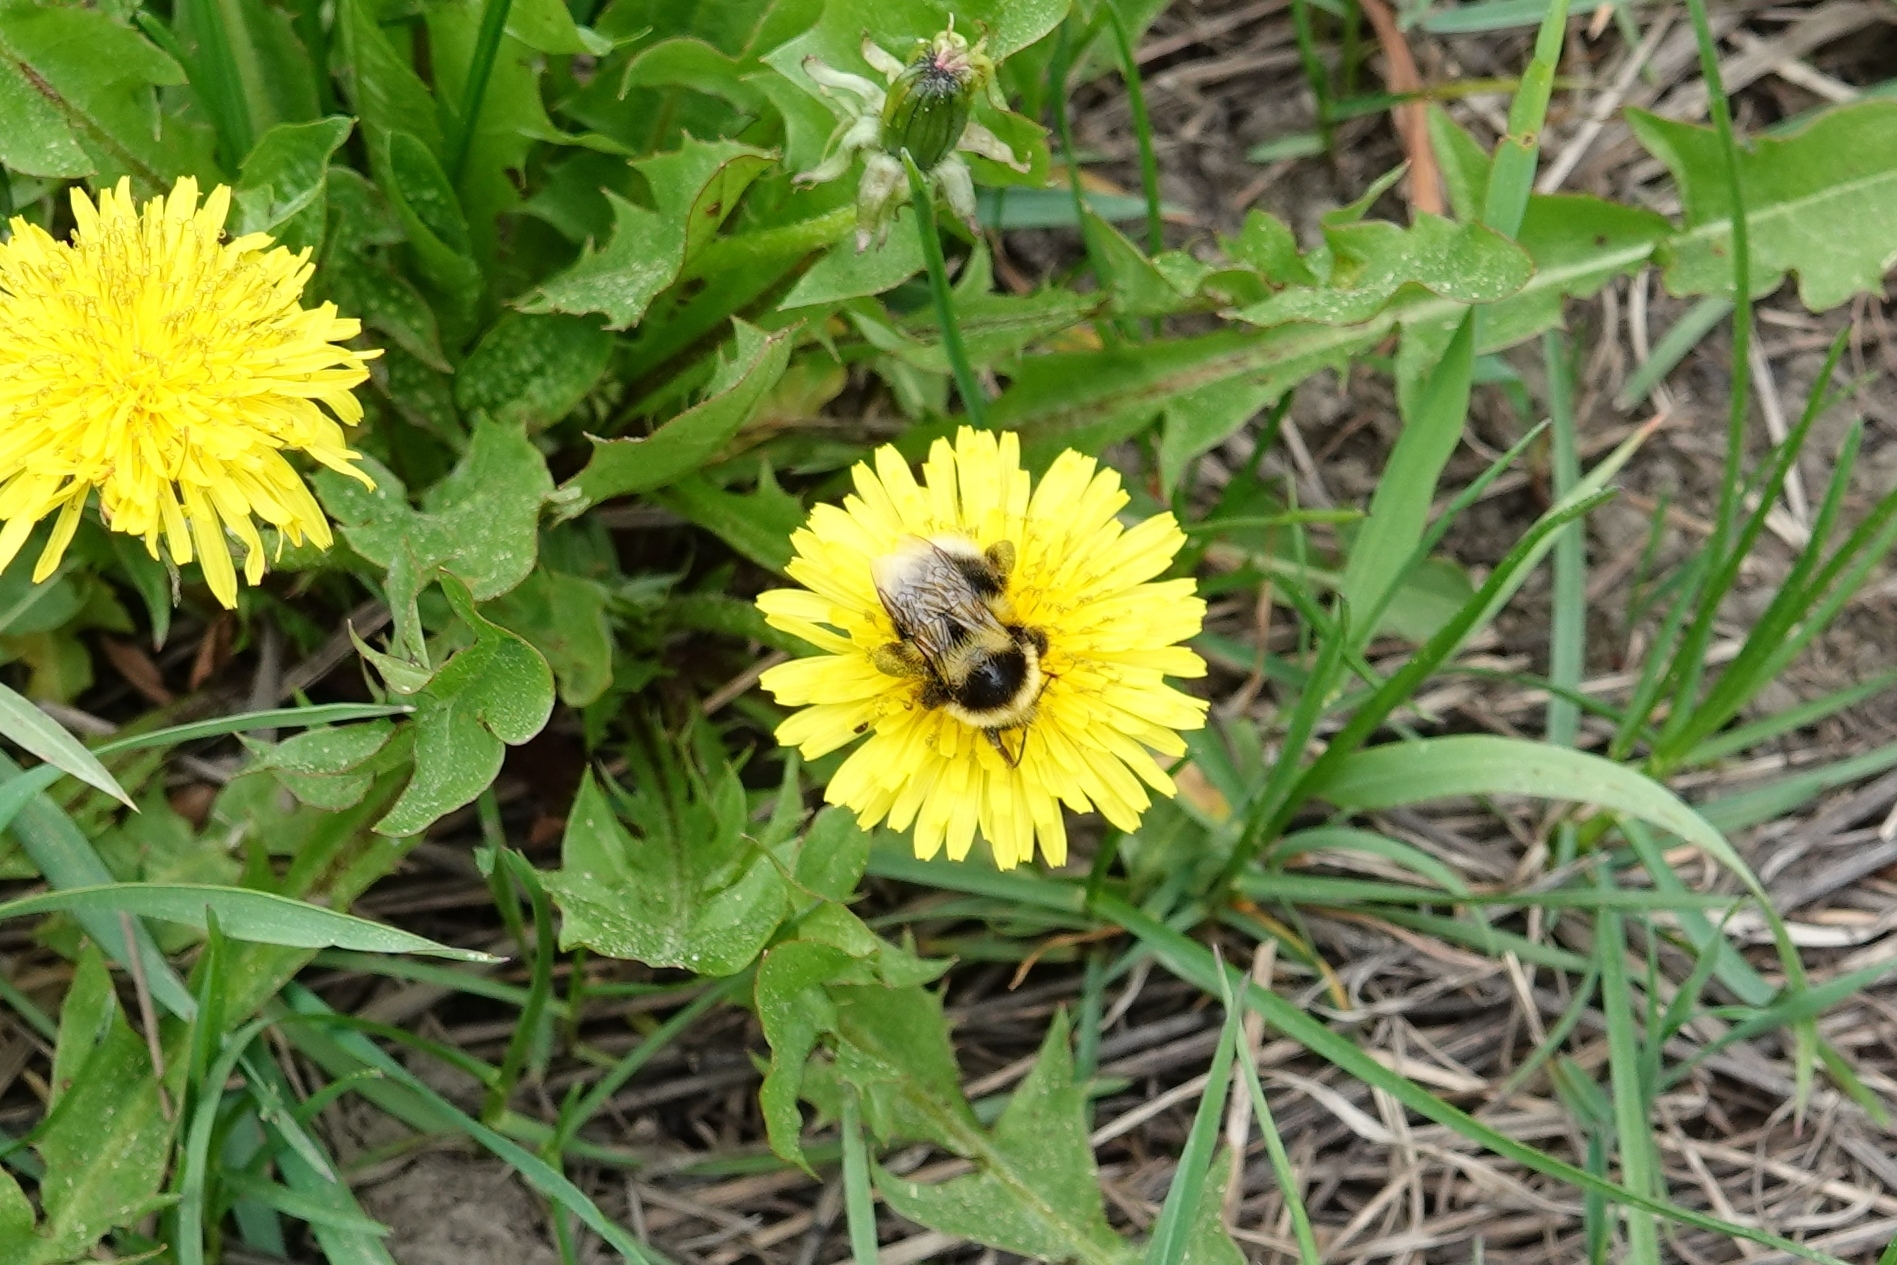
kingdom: Animalia
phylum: Arthropoda
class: Insecta
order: Hymenoptera
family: Apidae
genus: Bombus
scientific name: Bombus semenoviellus
